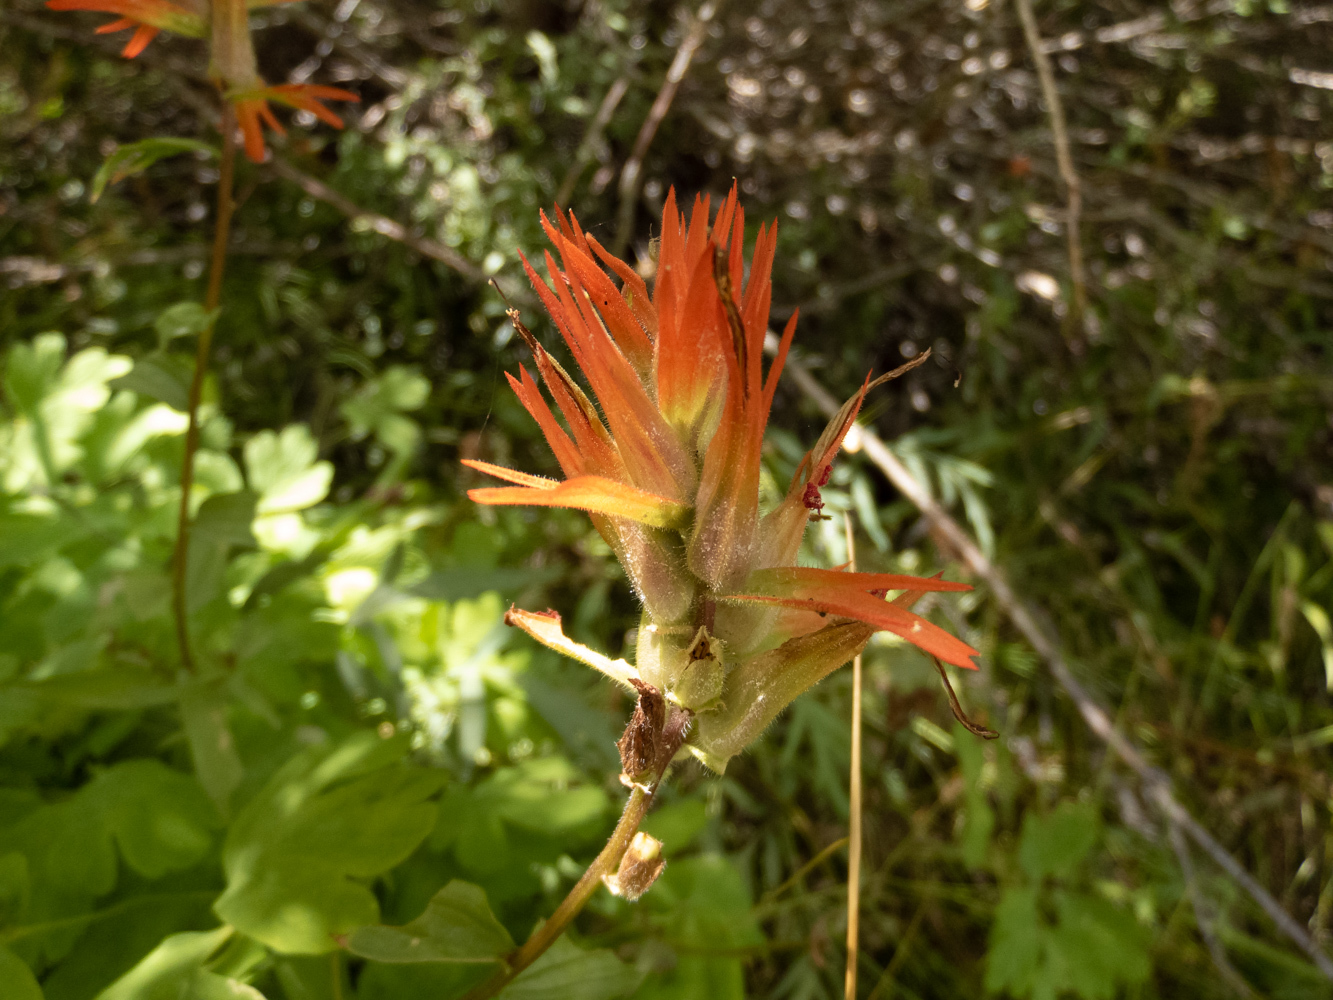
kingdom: Plantae
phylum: Tracheophyta
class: Magnoliopsida
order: Lamiales
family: Orobanchaceae
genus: Castilleja
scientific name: Castilleja miniata
